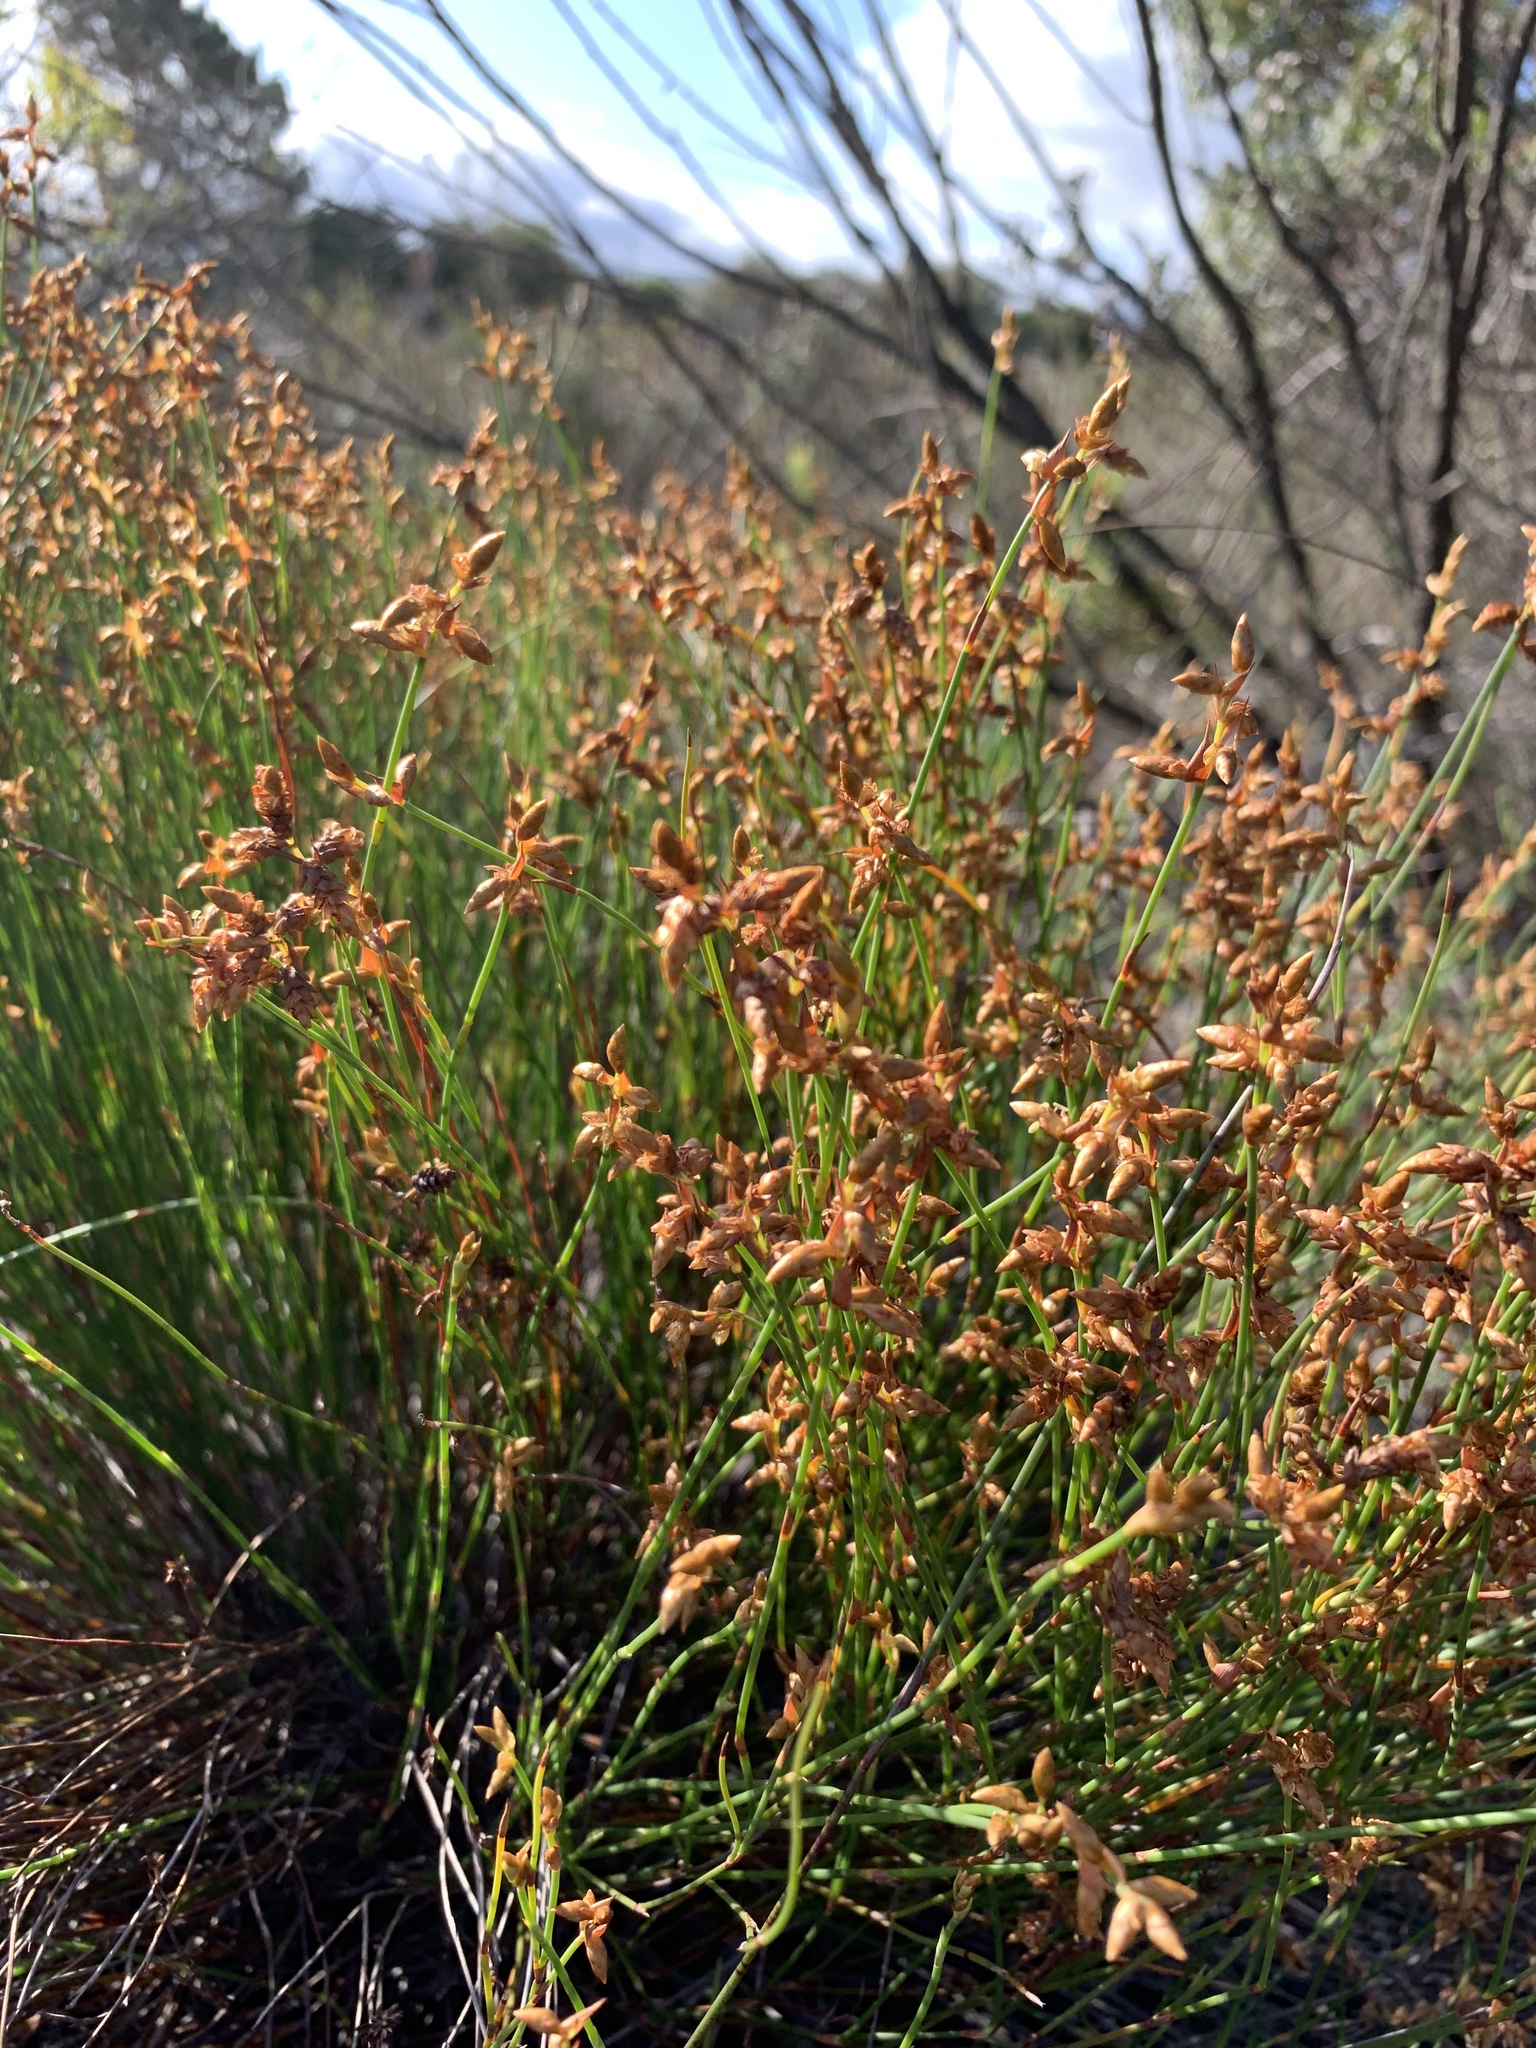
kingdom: Plantae
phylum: Tracheophyta
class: Liliopsida
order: Poales
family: Restionaceae
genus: Mastersiella
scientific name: Mastersiella digitata
